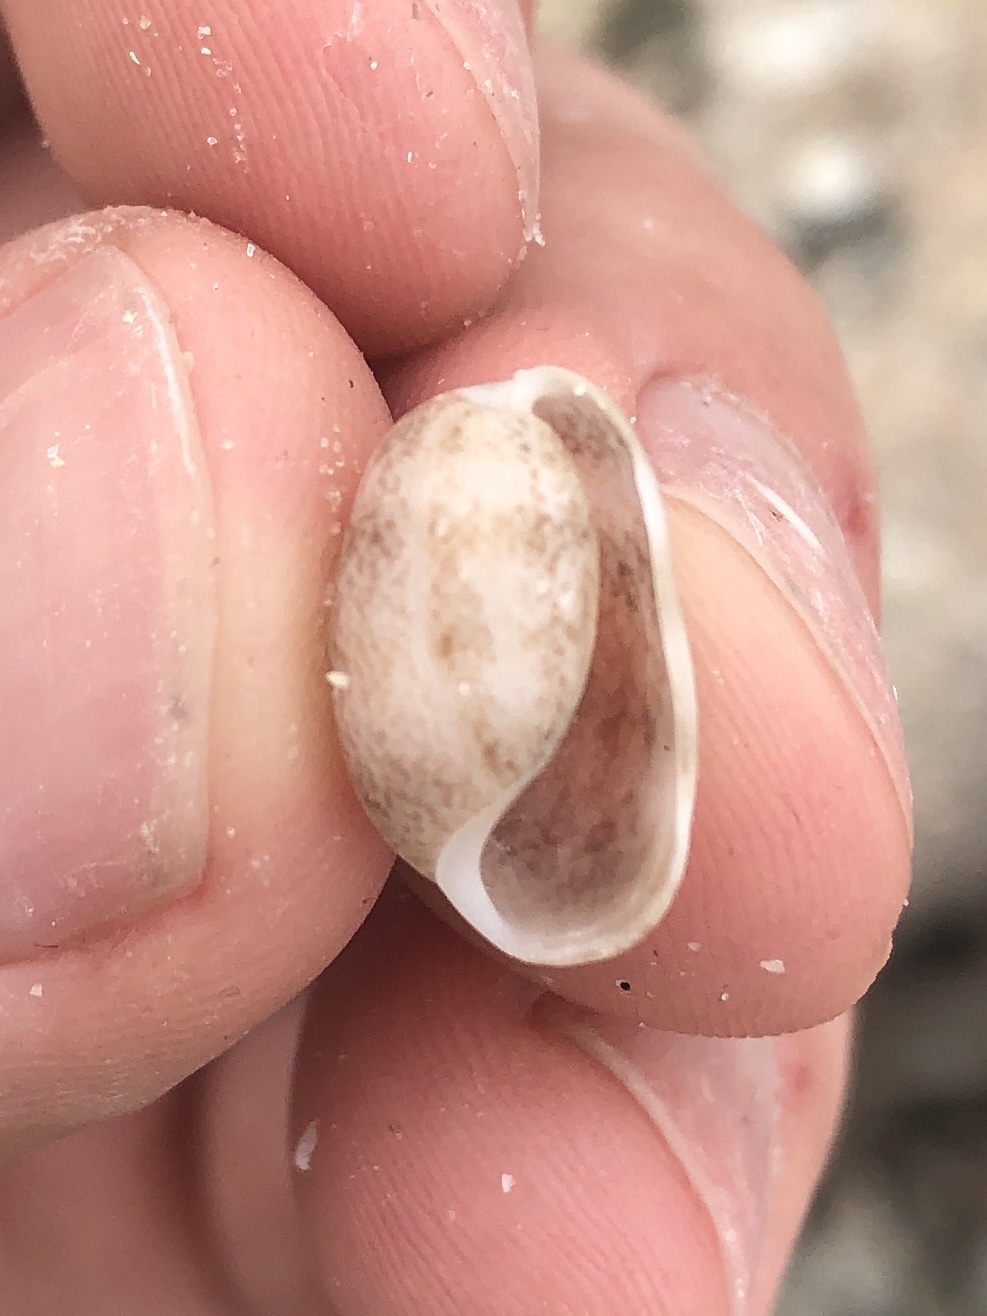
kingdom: Animalia
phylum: Mollusca
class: Gastropoda
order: Cephalaspidea
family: Bullidae
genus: Bulla
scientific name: Bulla occidentalis
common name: Common west-indian bubble
